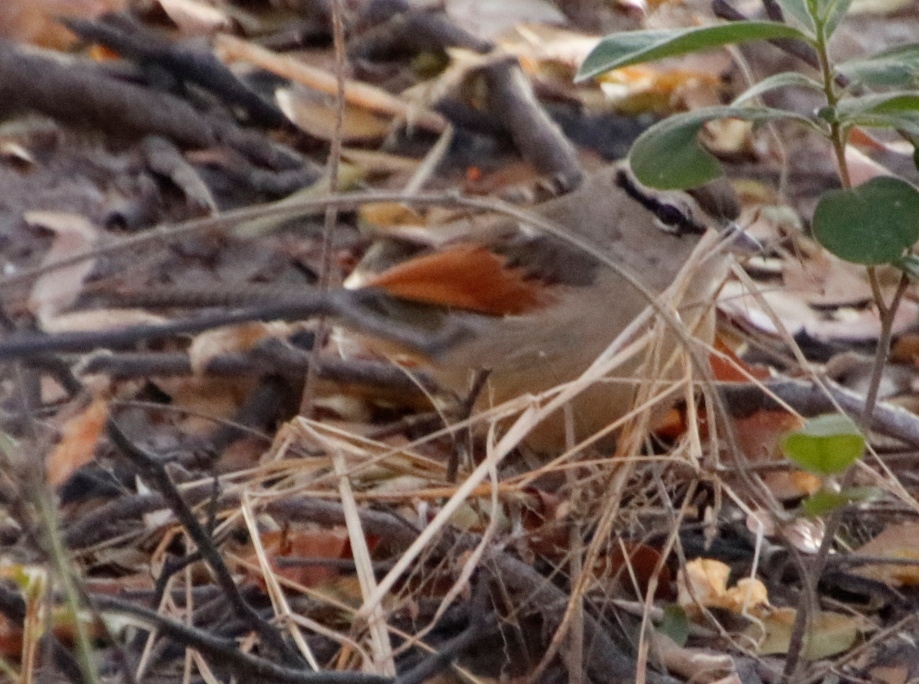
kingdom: Animalia
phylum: Chordata
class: Aves
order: Passeriformes
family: Malaconotidae
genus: Tchagra
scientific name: Tchagra australis
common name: Brown-crowned tchagra
